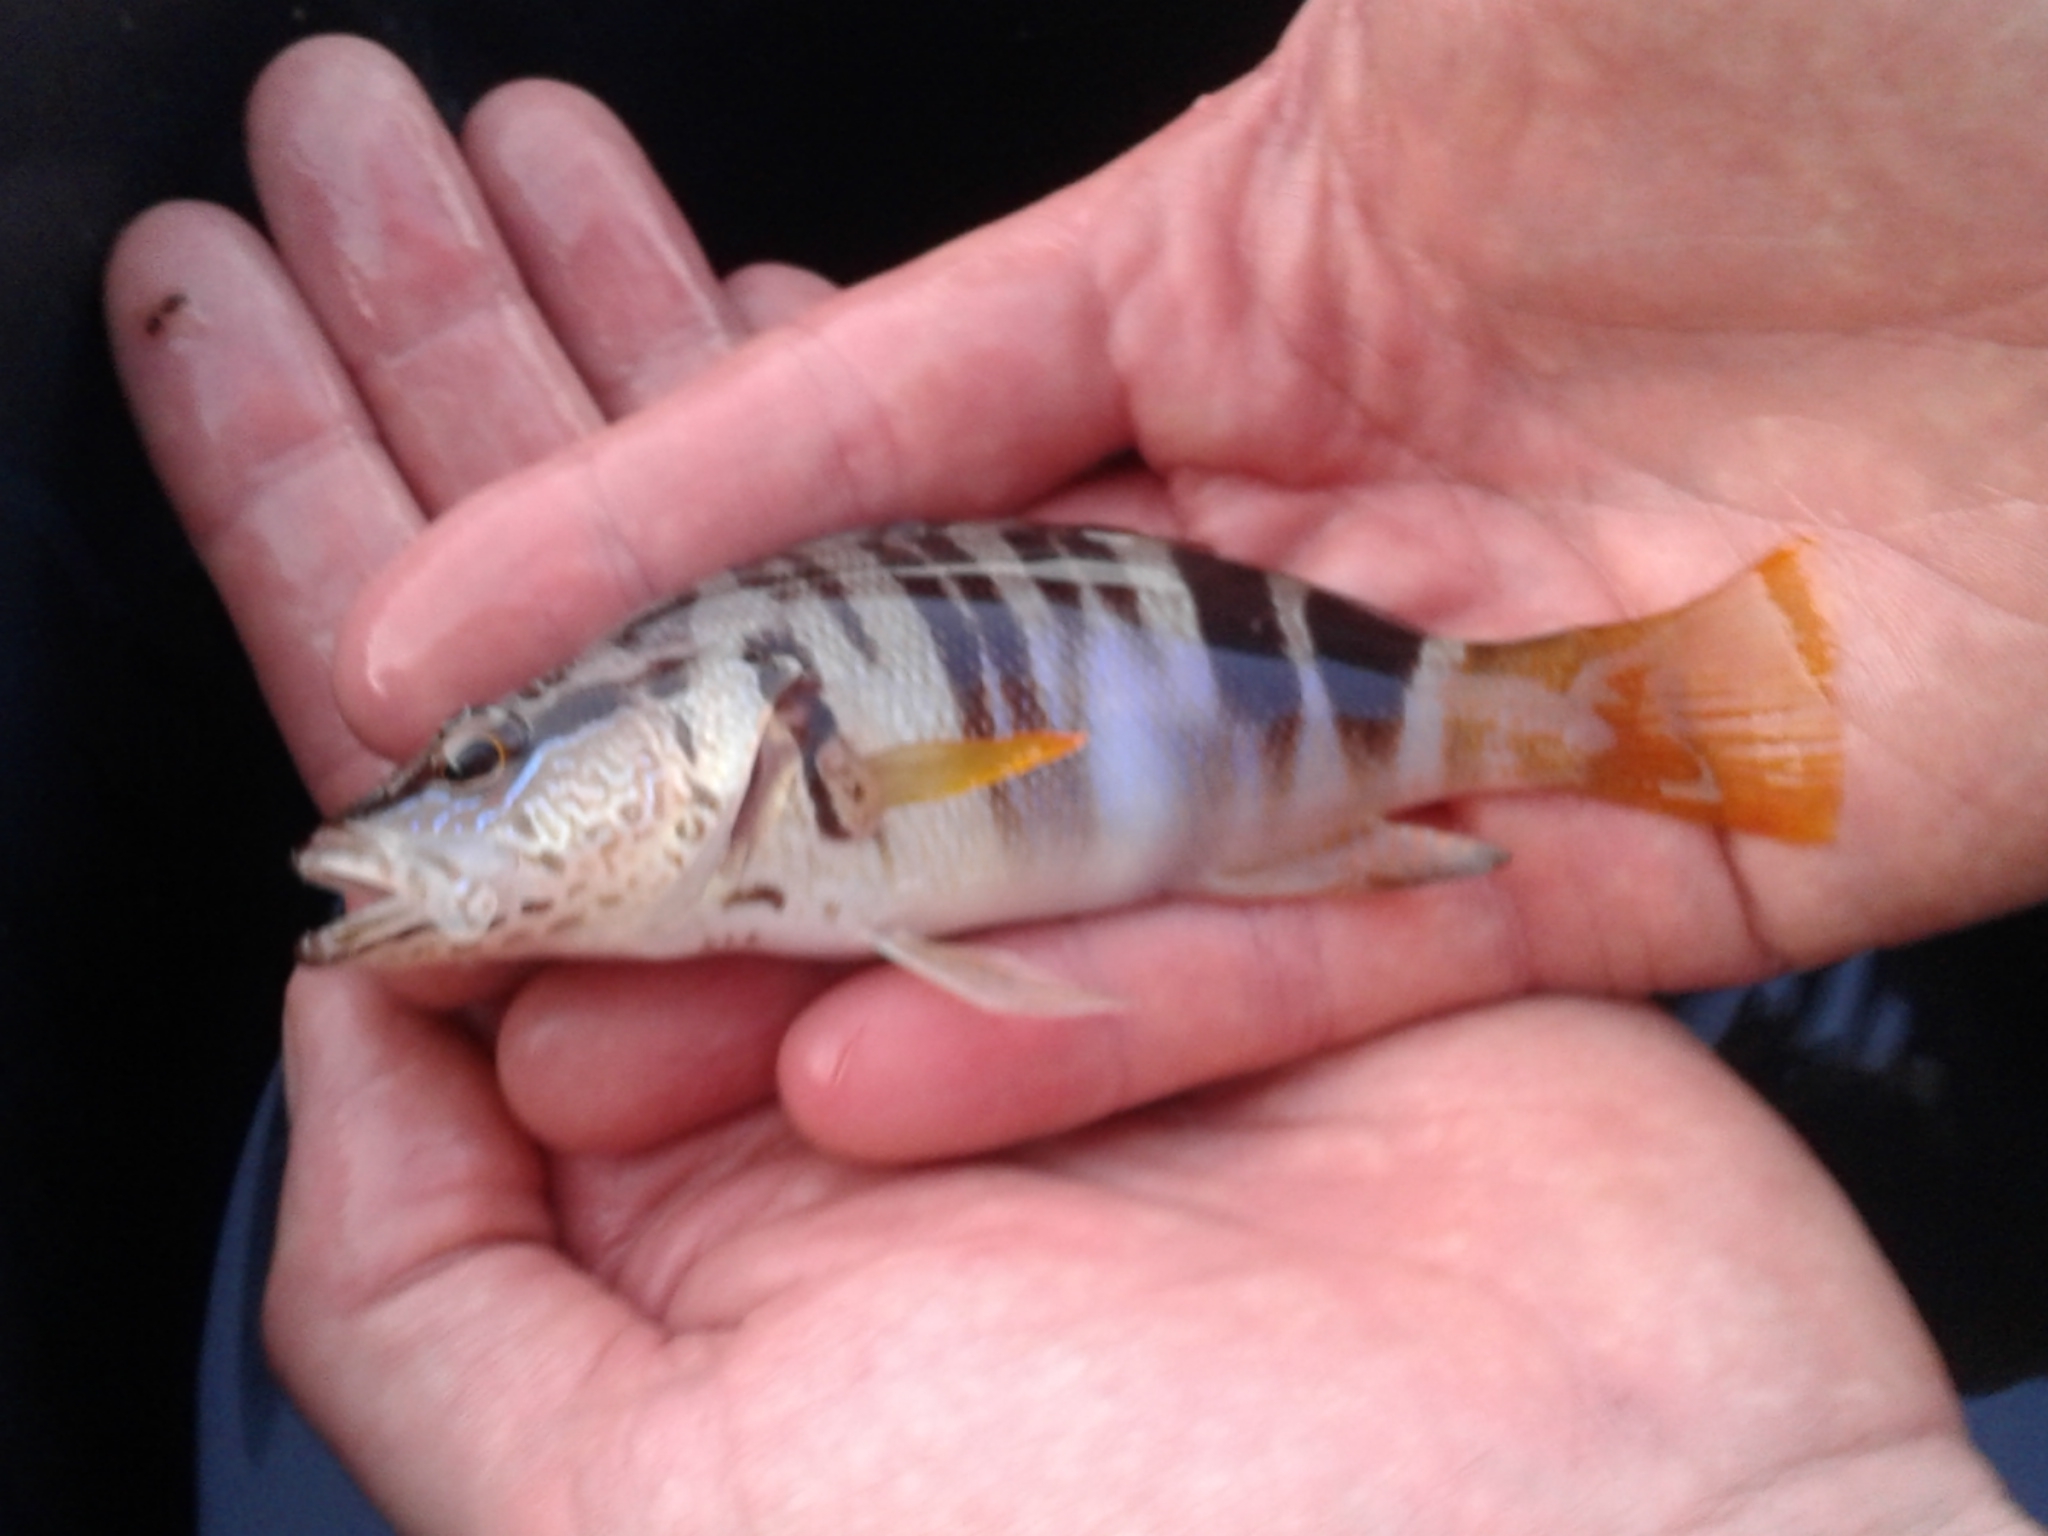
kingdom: Animalia
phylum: Chordata
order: Perciformes
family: Serranidae
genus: Serranus
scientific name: Serranus scriba
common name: Painted comber
